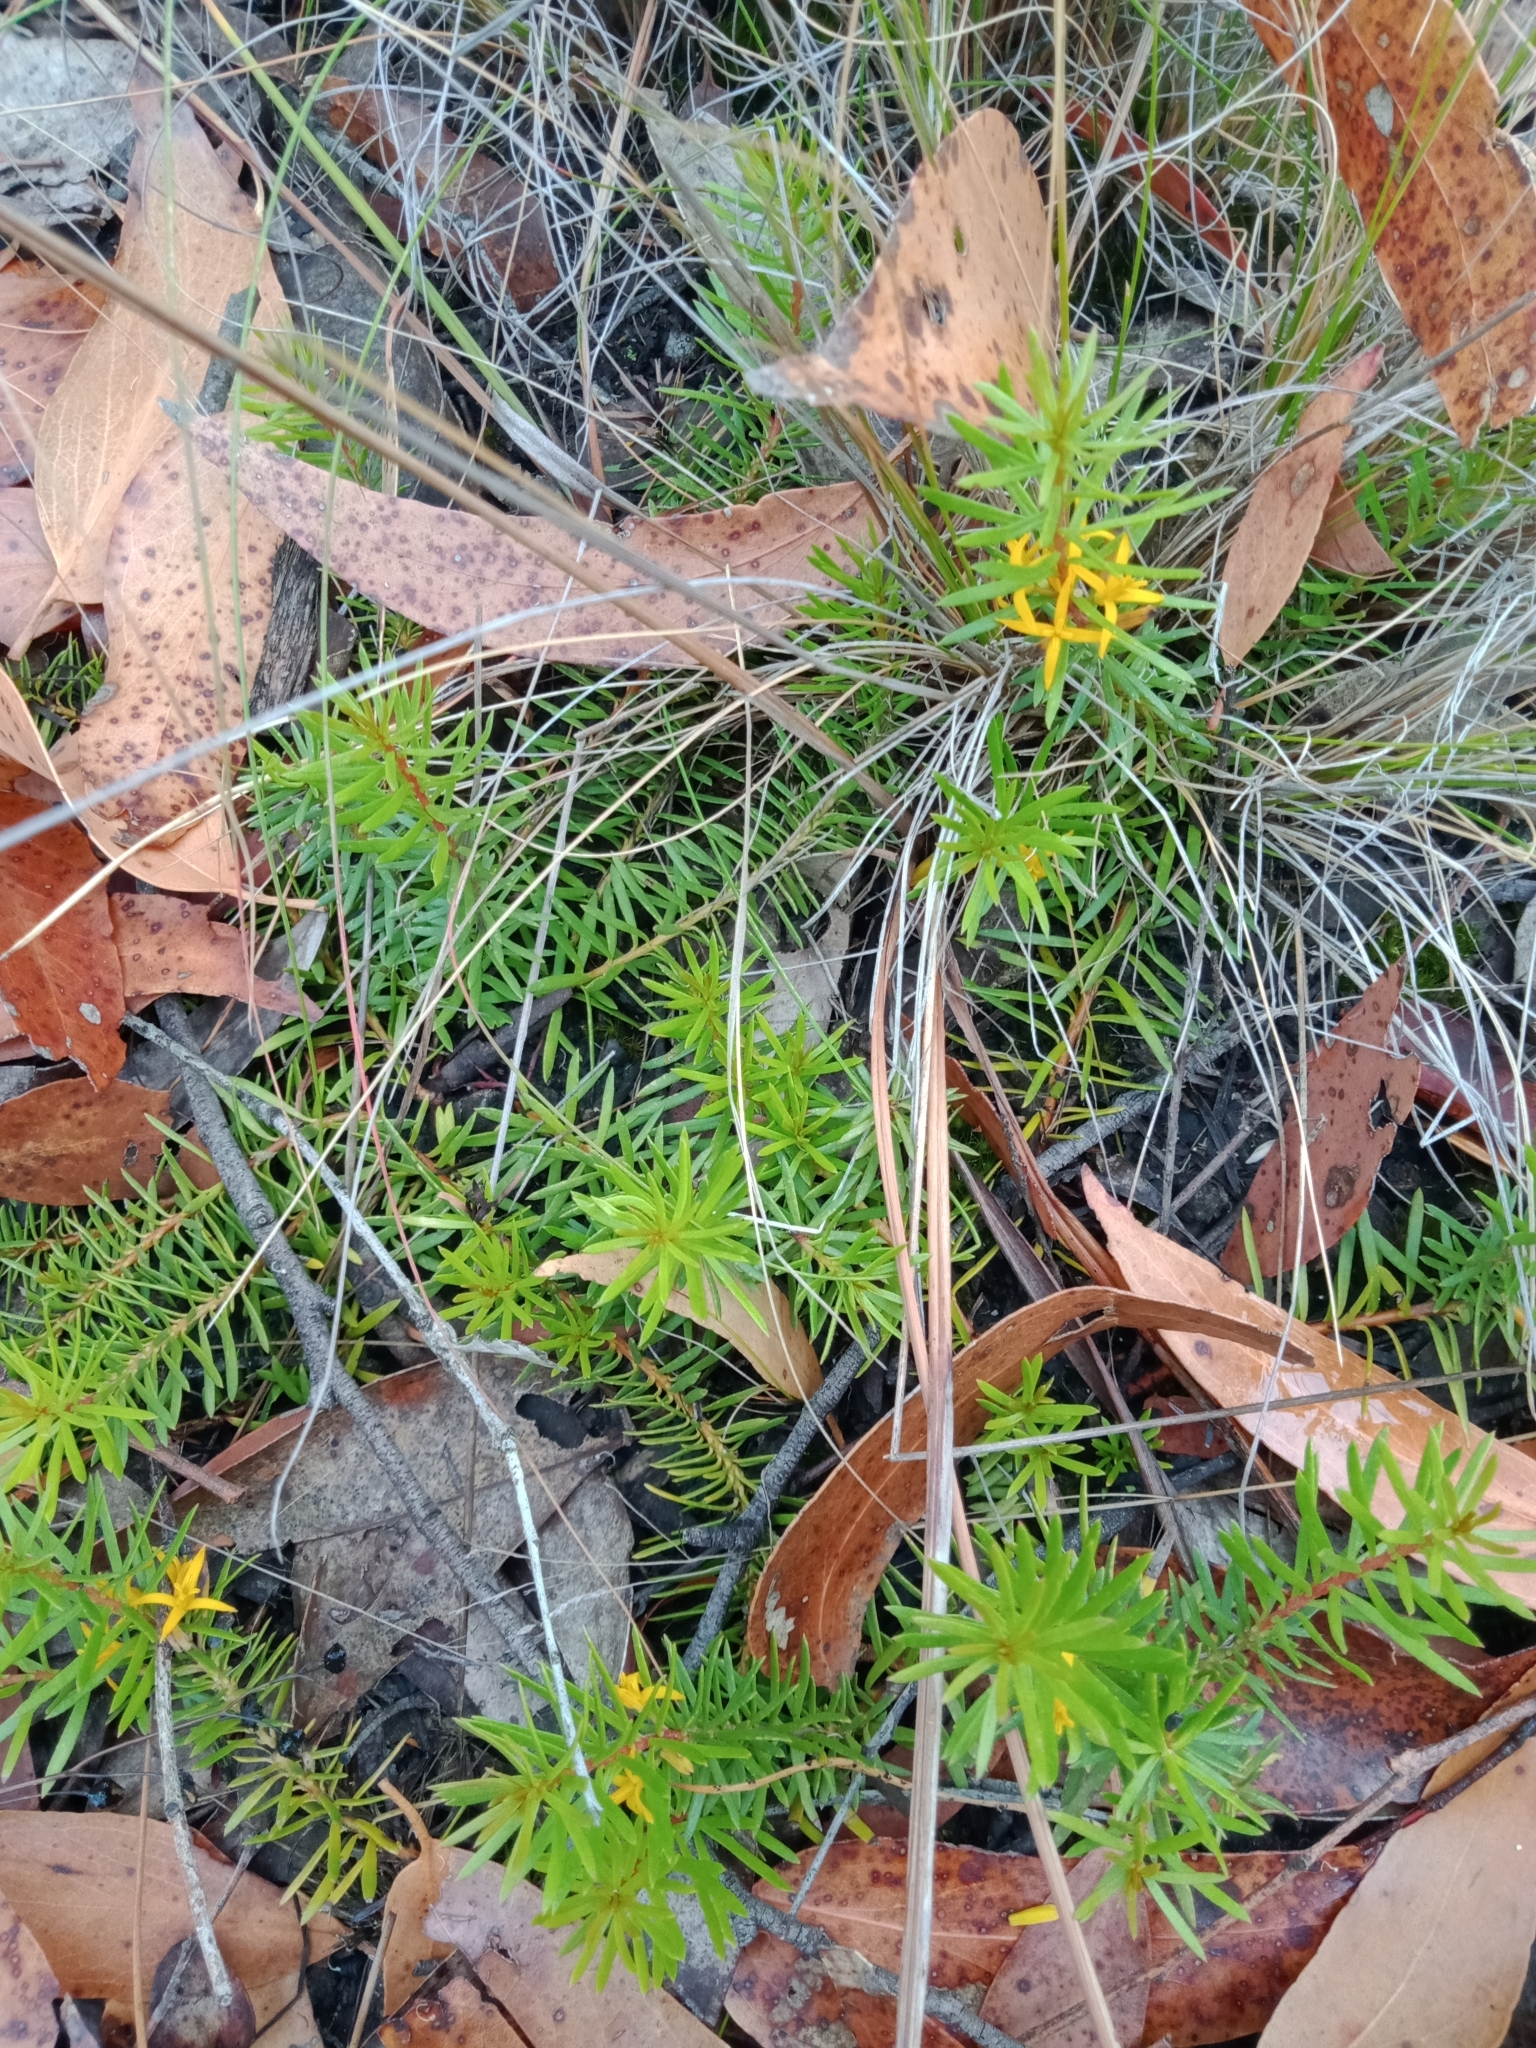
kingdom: Plantae
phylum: Tracheophyta
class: Magnoliopsida
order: Proteales
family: Proteaceae
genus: Persoonia
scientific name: Persoonia chamaepeuce
